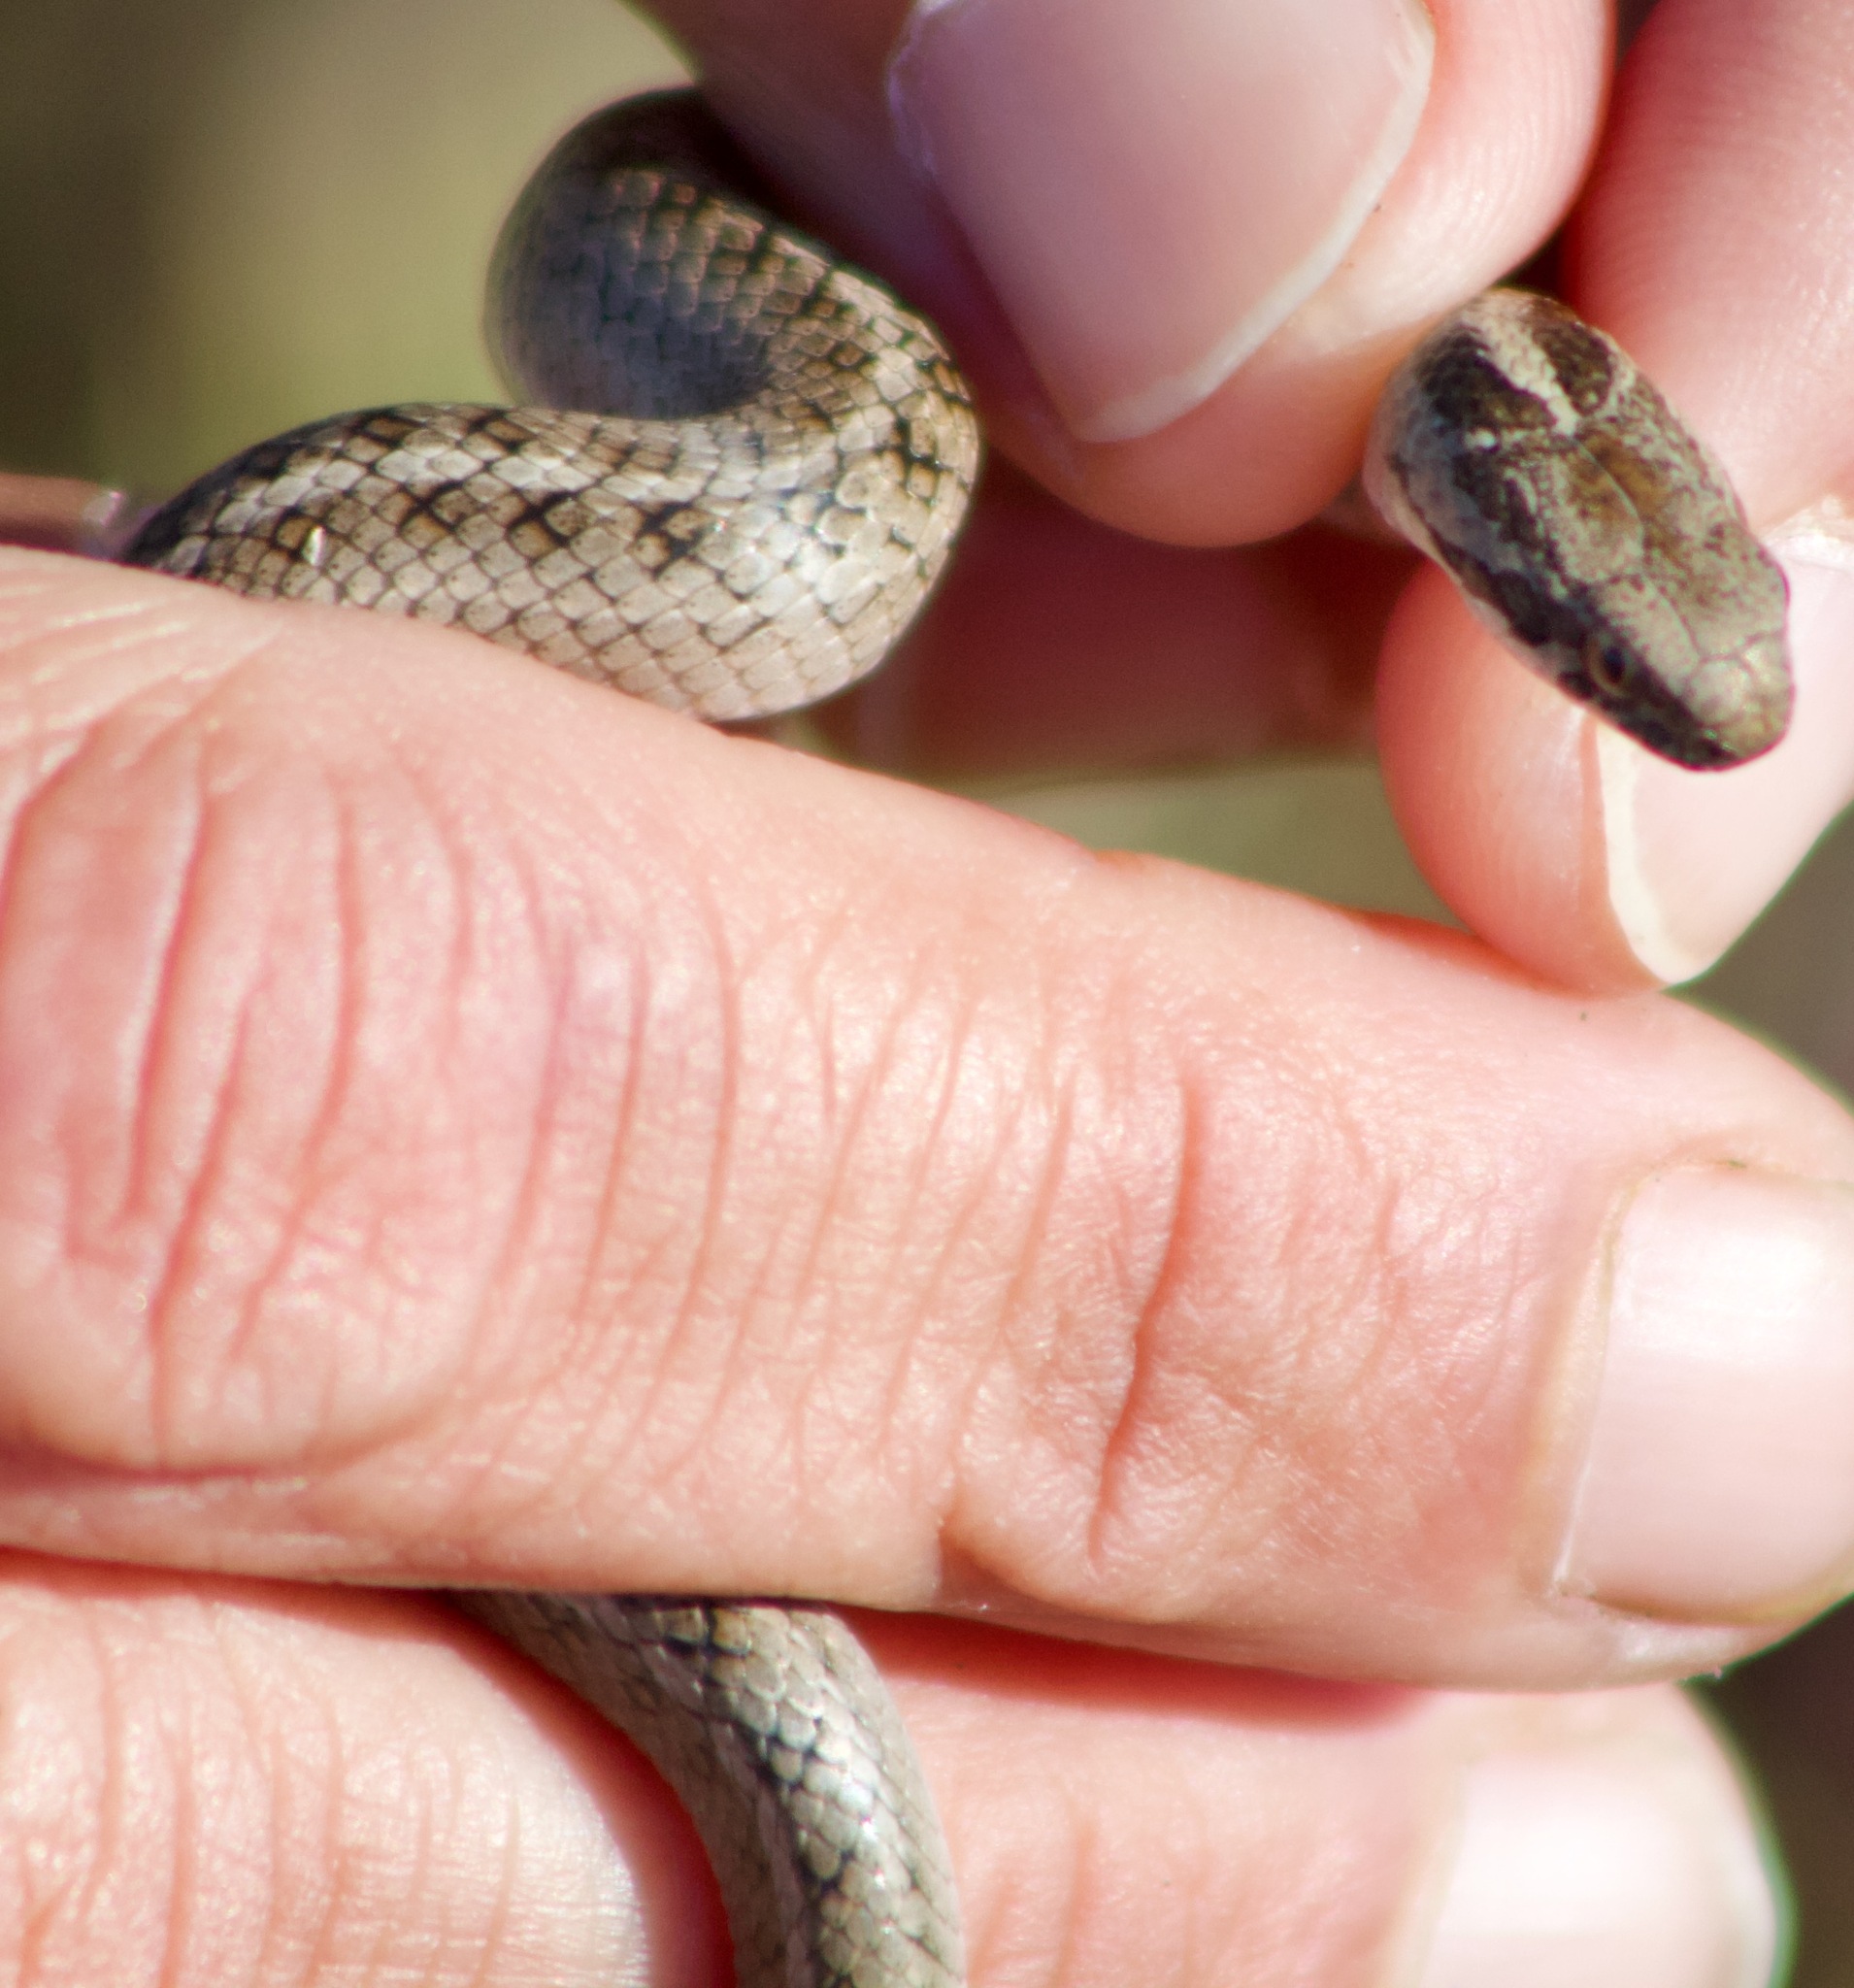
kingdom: Animalia
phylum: Chordata
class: Squamata
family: Colubridae
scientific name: Colubridae
